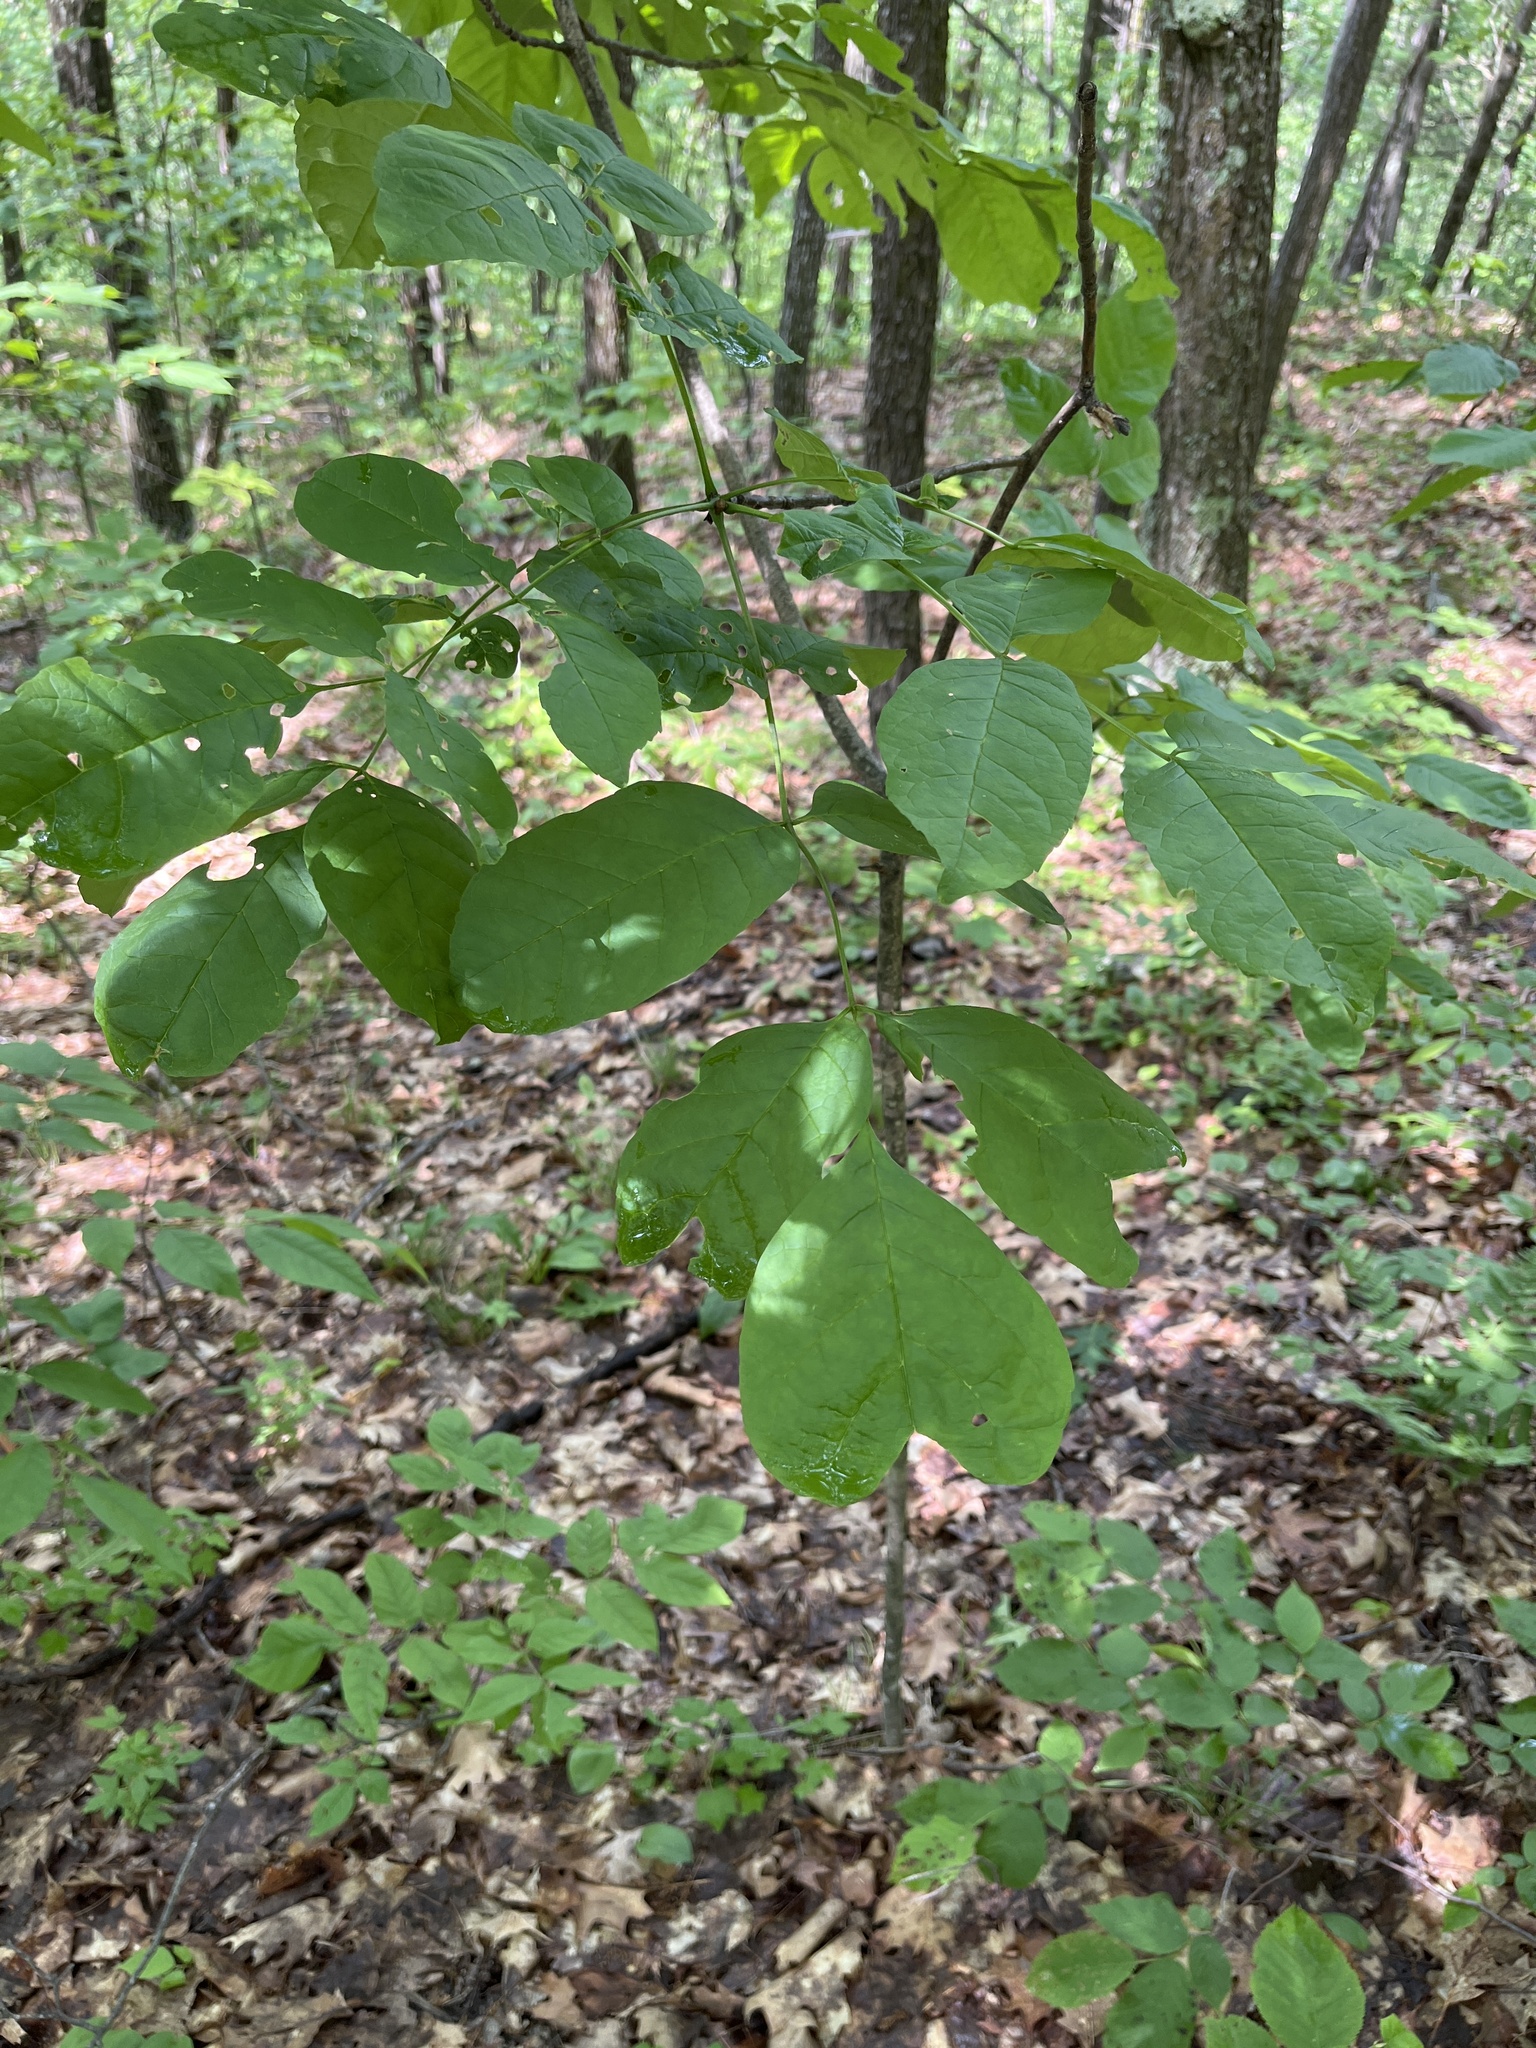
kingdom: Plantae
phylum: Tracheophyta
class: Magnoliopsida
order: Lamiales
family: Oleaceae
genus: Fraxinus
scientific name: Fraxinus americana
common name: White ash
